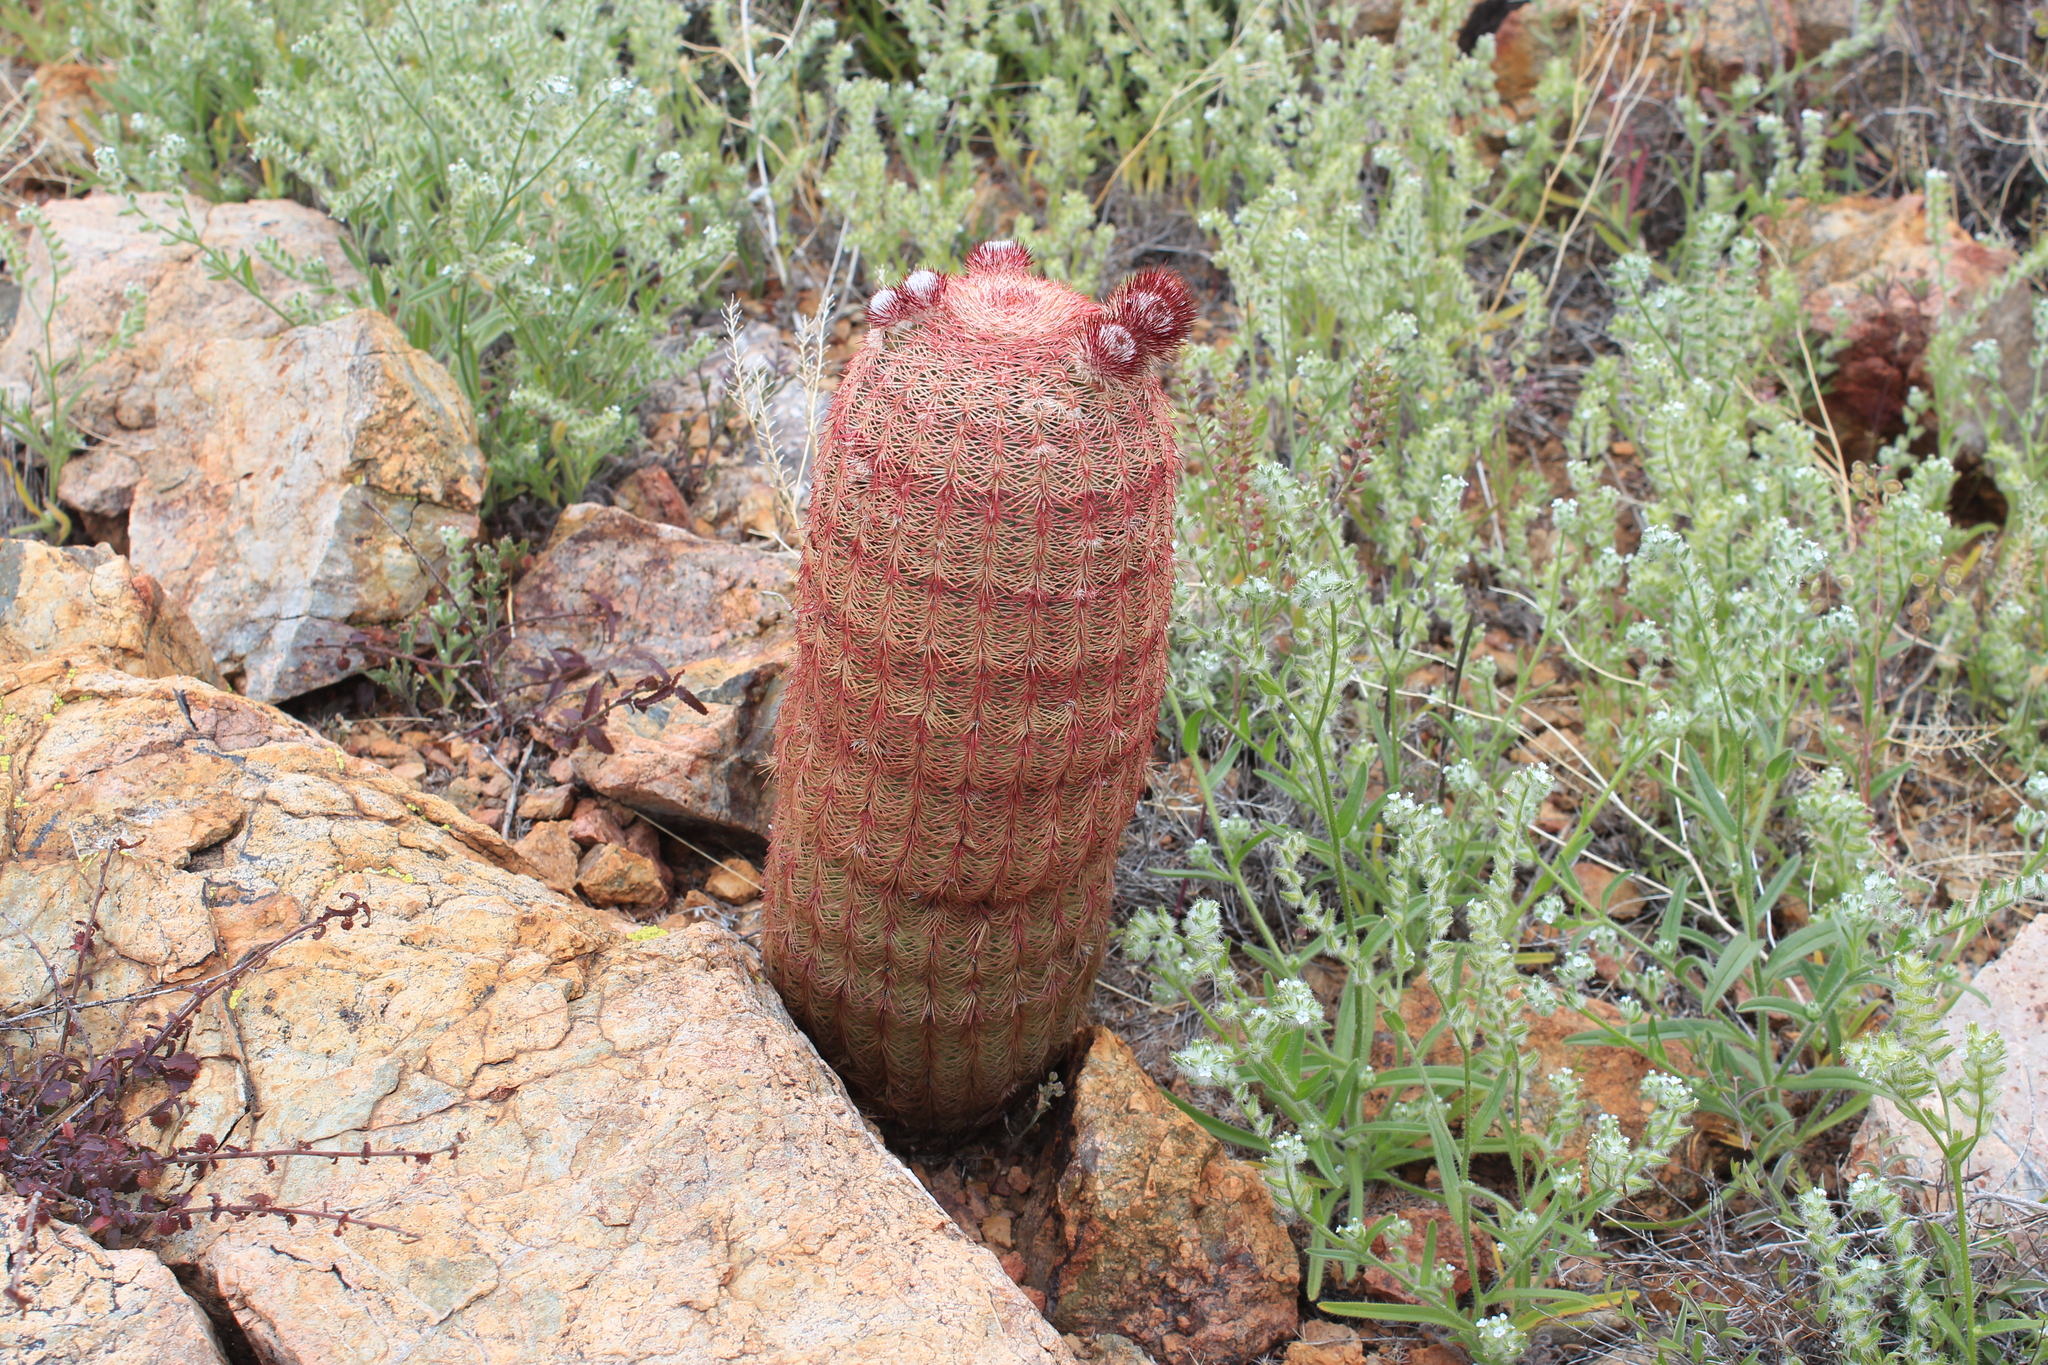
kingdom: Plantae
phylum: Tracheophyta
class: Magnoliopsida
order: Caryophyllales
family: Cactaceae
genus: Echinocereus
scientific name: Echinocereus rigidissimus
